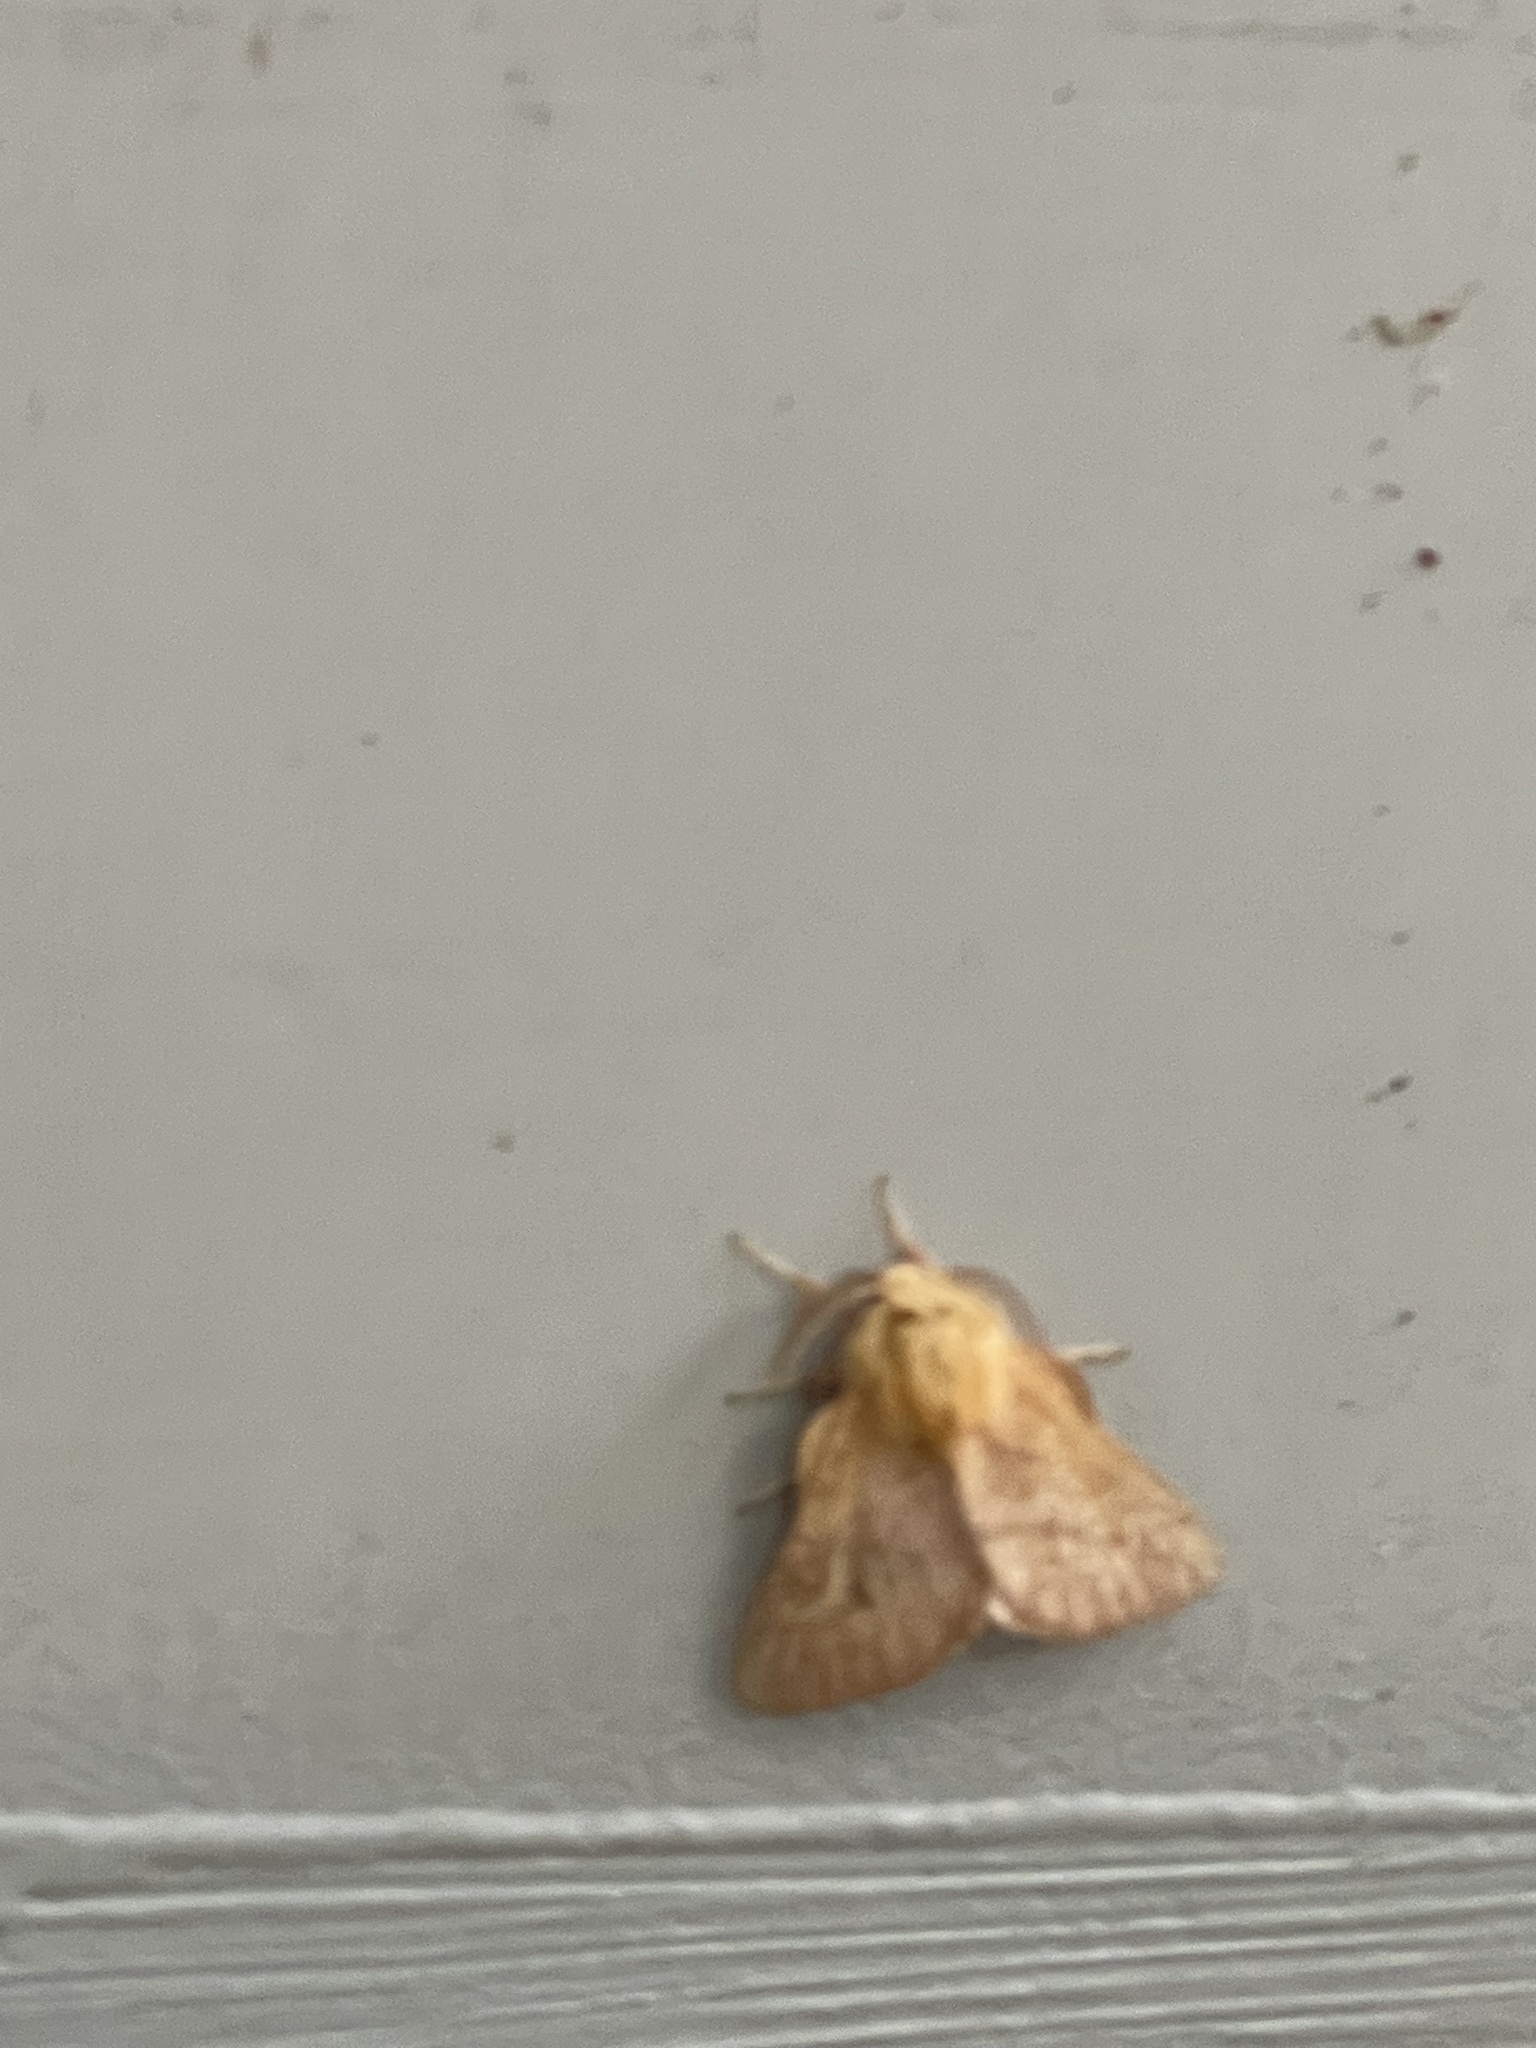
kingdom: Animalia
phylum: Arthropoda
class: Insecta
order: Lepidoptera
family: Lasiocampidae
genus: Malacosoma
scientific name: Malacosoma disstria
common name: Forest tent caterpillar
